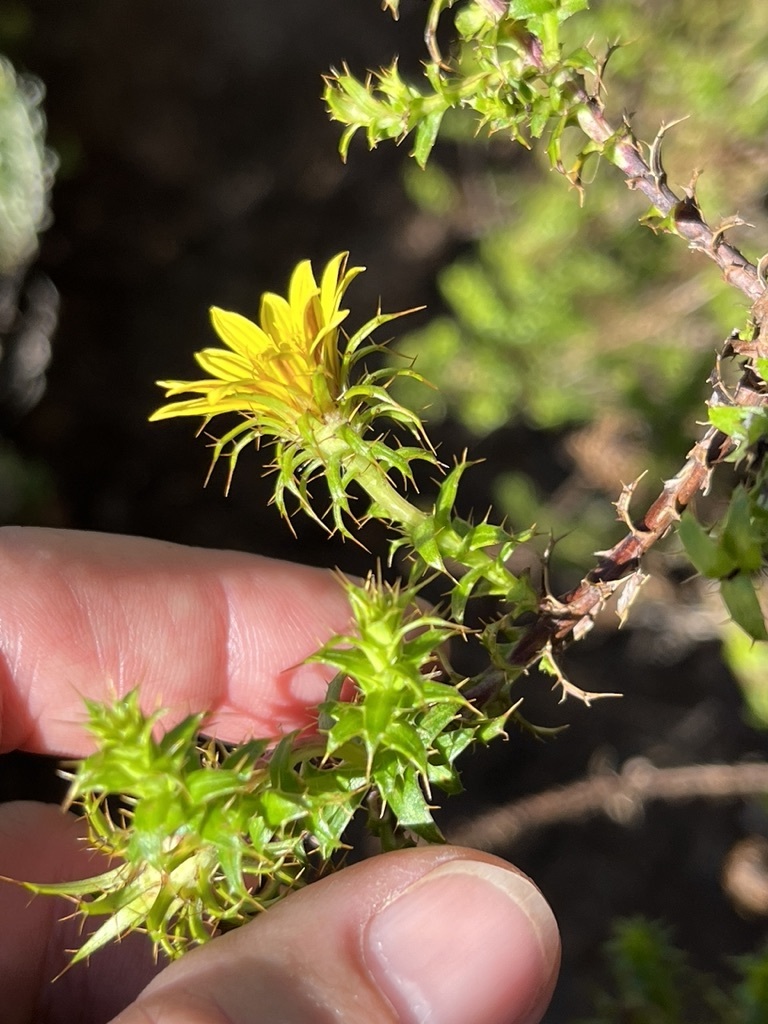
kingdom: Plantae
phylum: Tracheophyta
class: Magnoliopsida
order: Asterales
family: Asteraceae
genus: Cullumia
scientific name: Cullumia setosa
